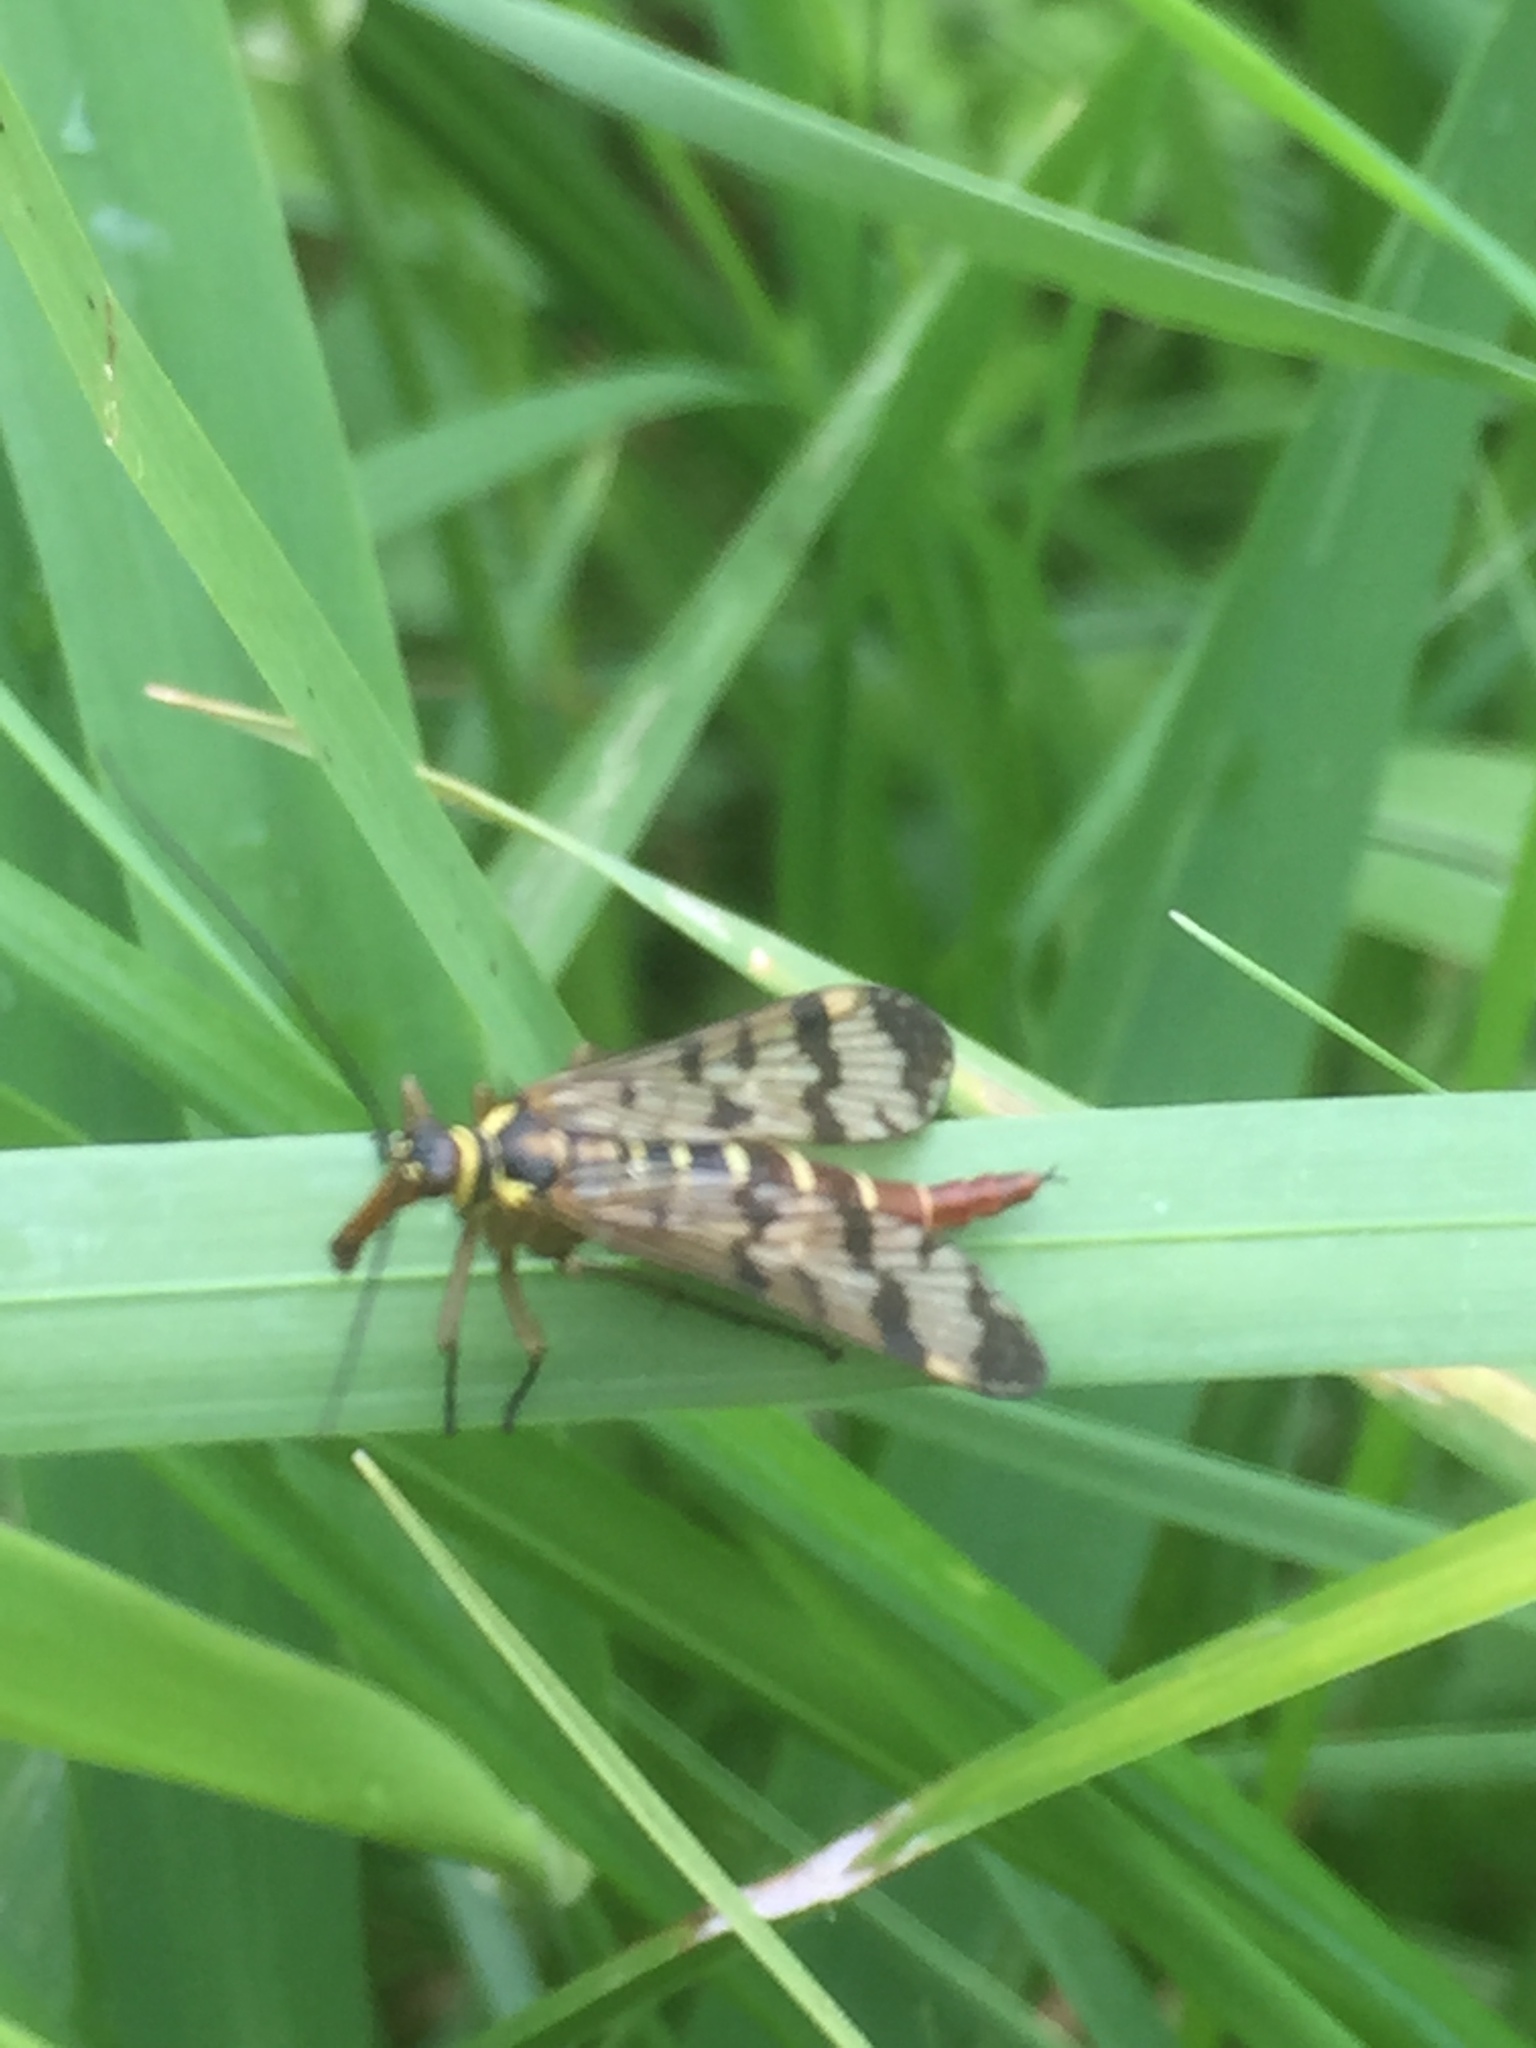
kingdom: Animalia
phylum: Arthropoda
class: Insecta
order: Mecoptera
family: Panorpidae
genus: Panorpa
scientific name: Panorpa communis
